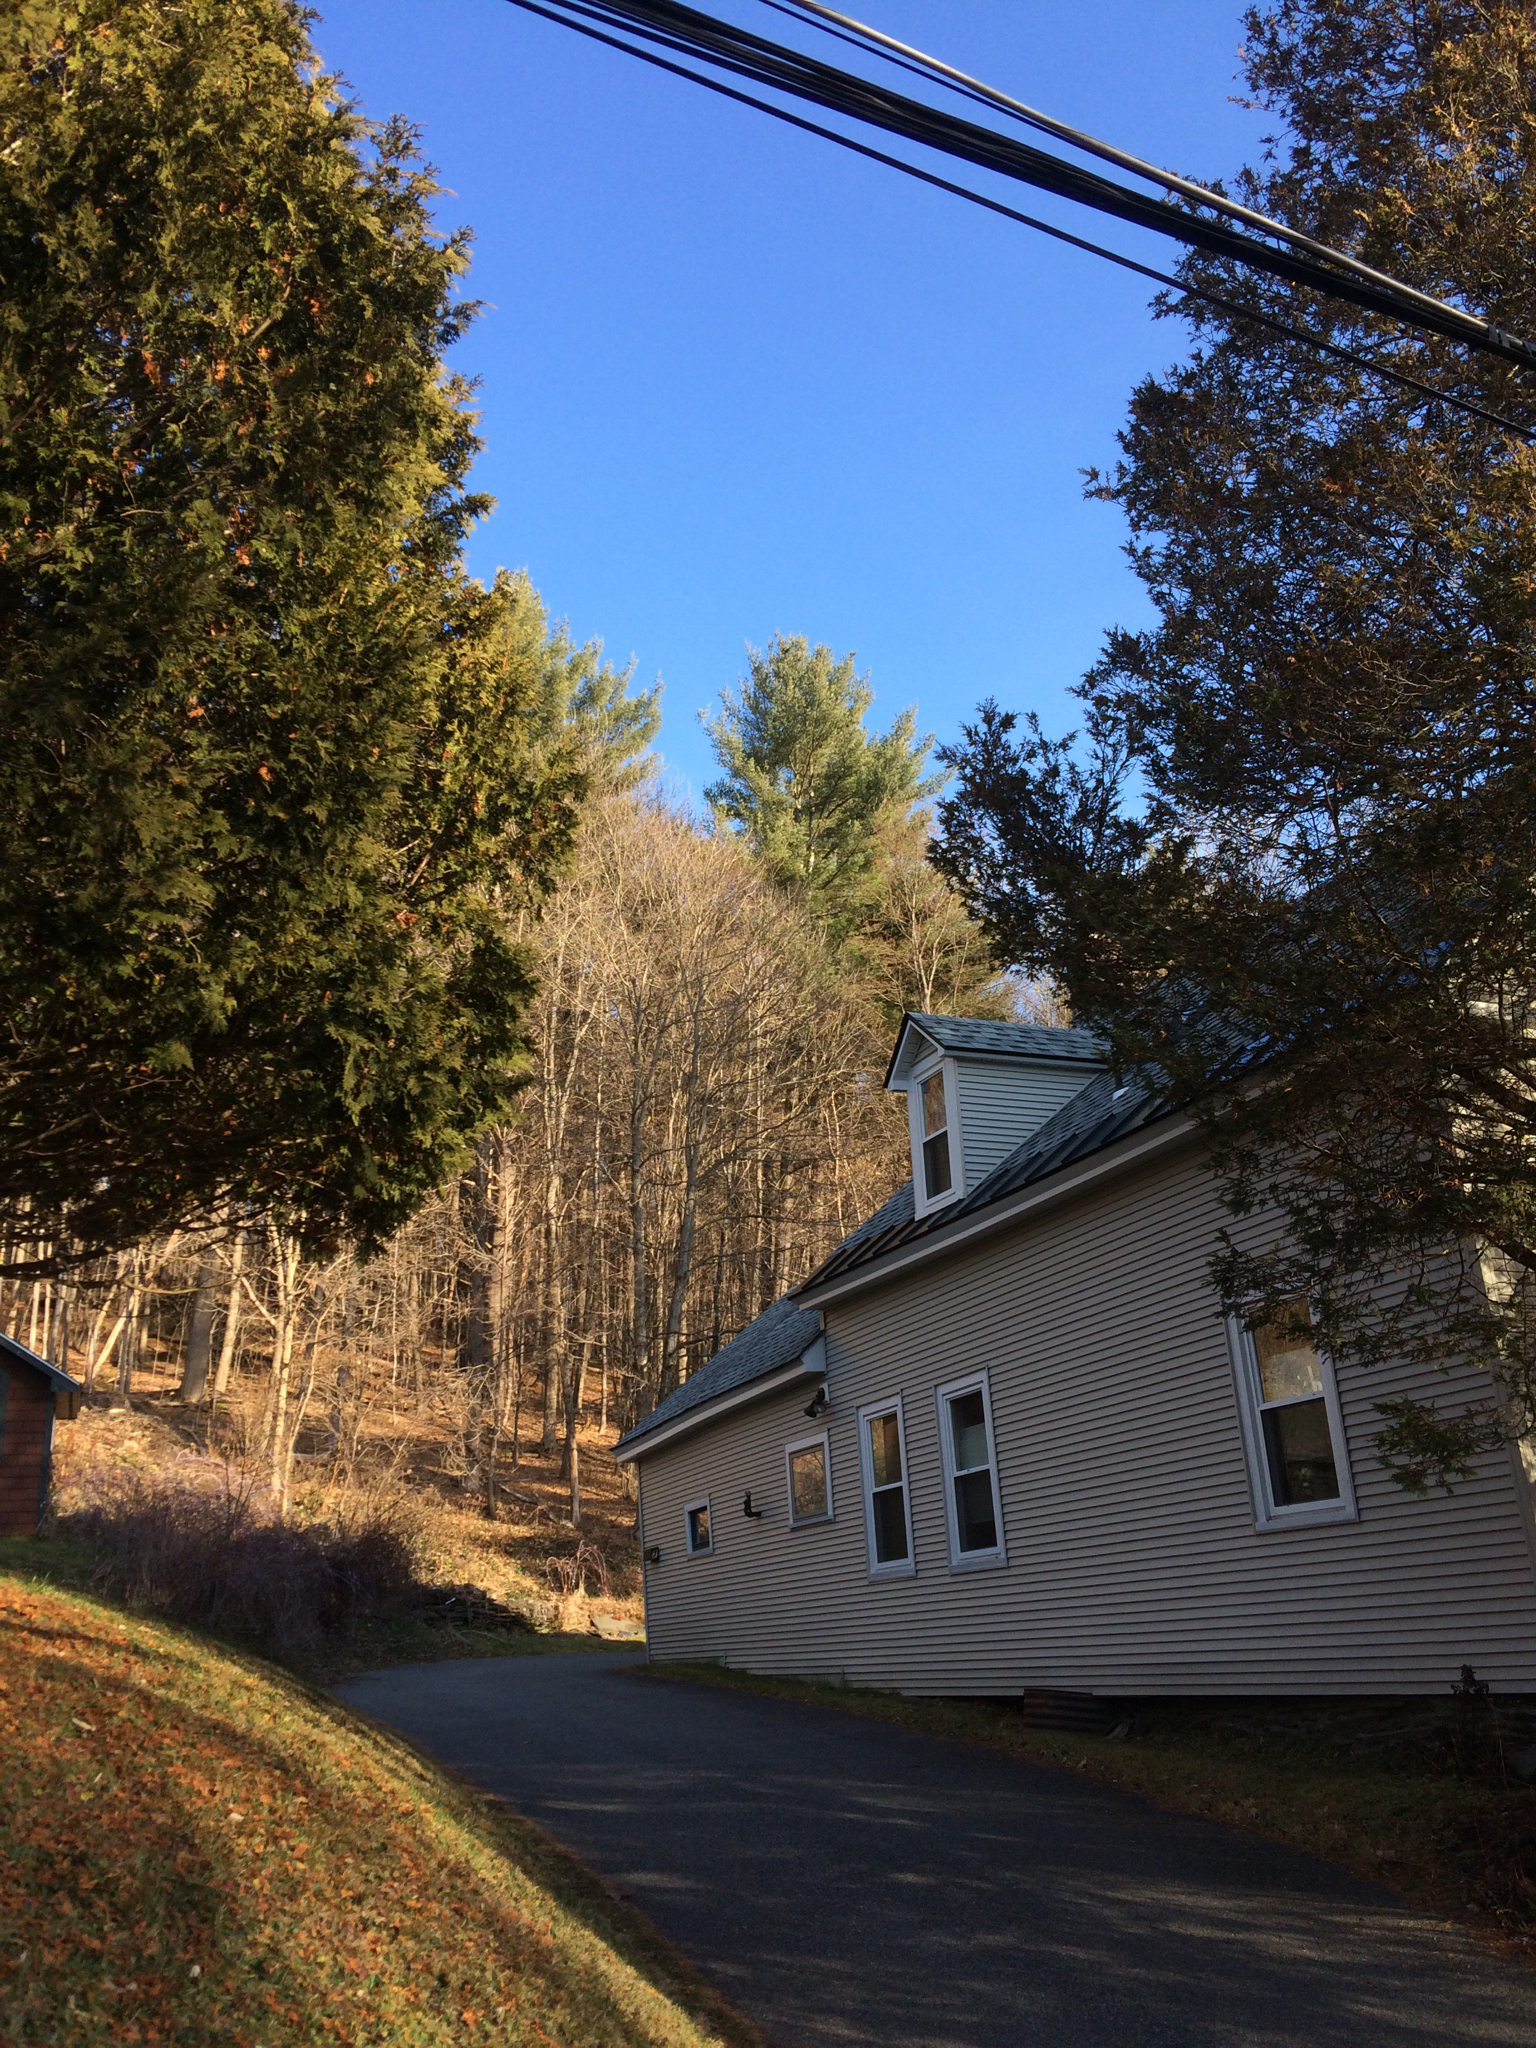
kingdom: Plantae
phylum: Tracheophyta
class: Pinopsida
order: Pinales
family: Pinaceae
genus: Pinus
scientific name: Pinus strobus
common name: Weymouth pine
